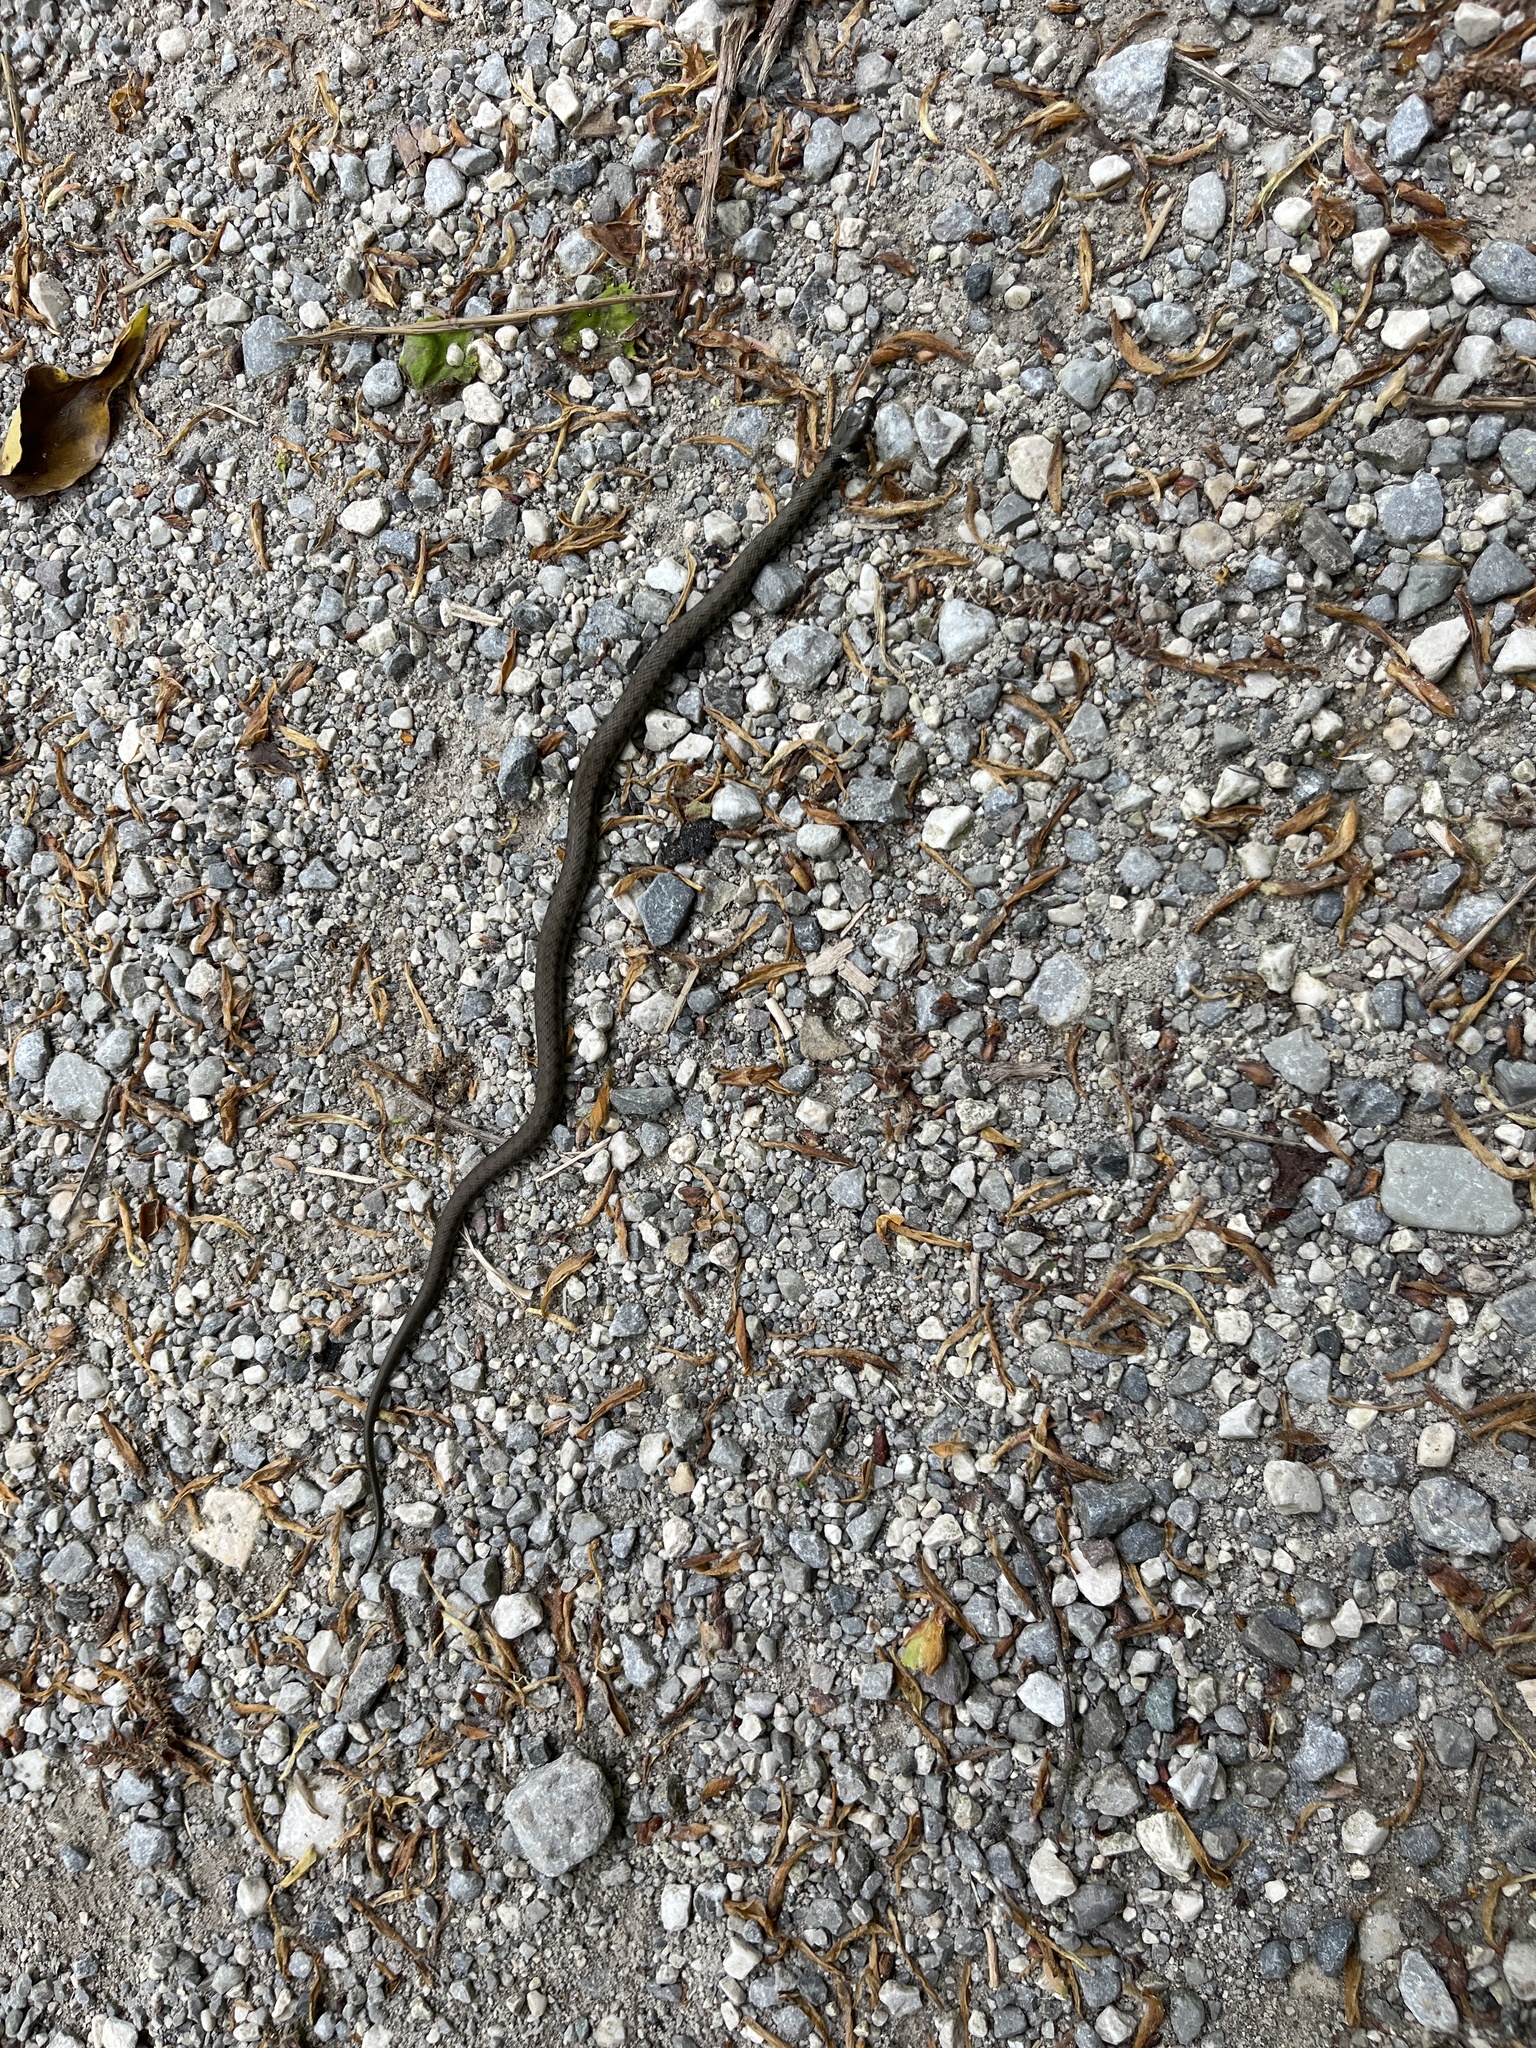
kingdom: Animalia
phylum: Chordata
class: Squamata
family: Colubridae
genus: Natrix
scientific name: Natrix natrix
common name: Grass snake
